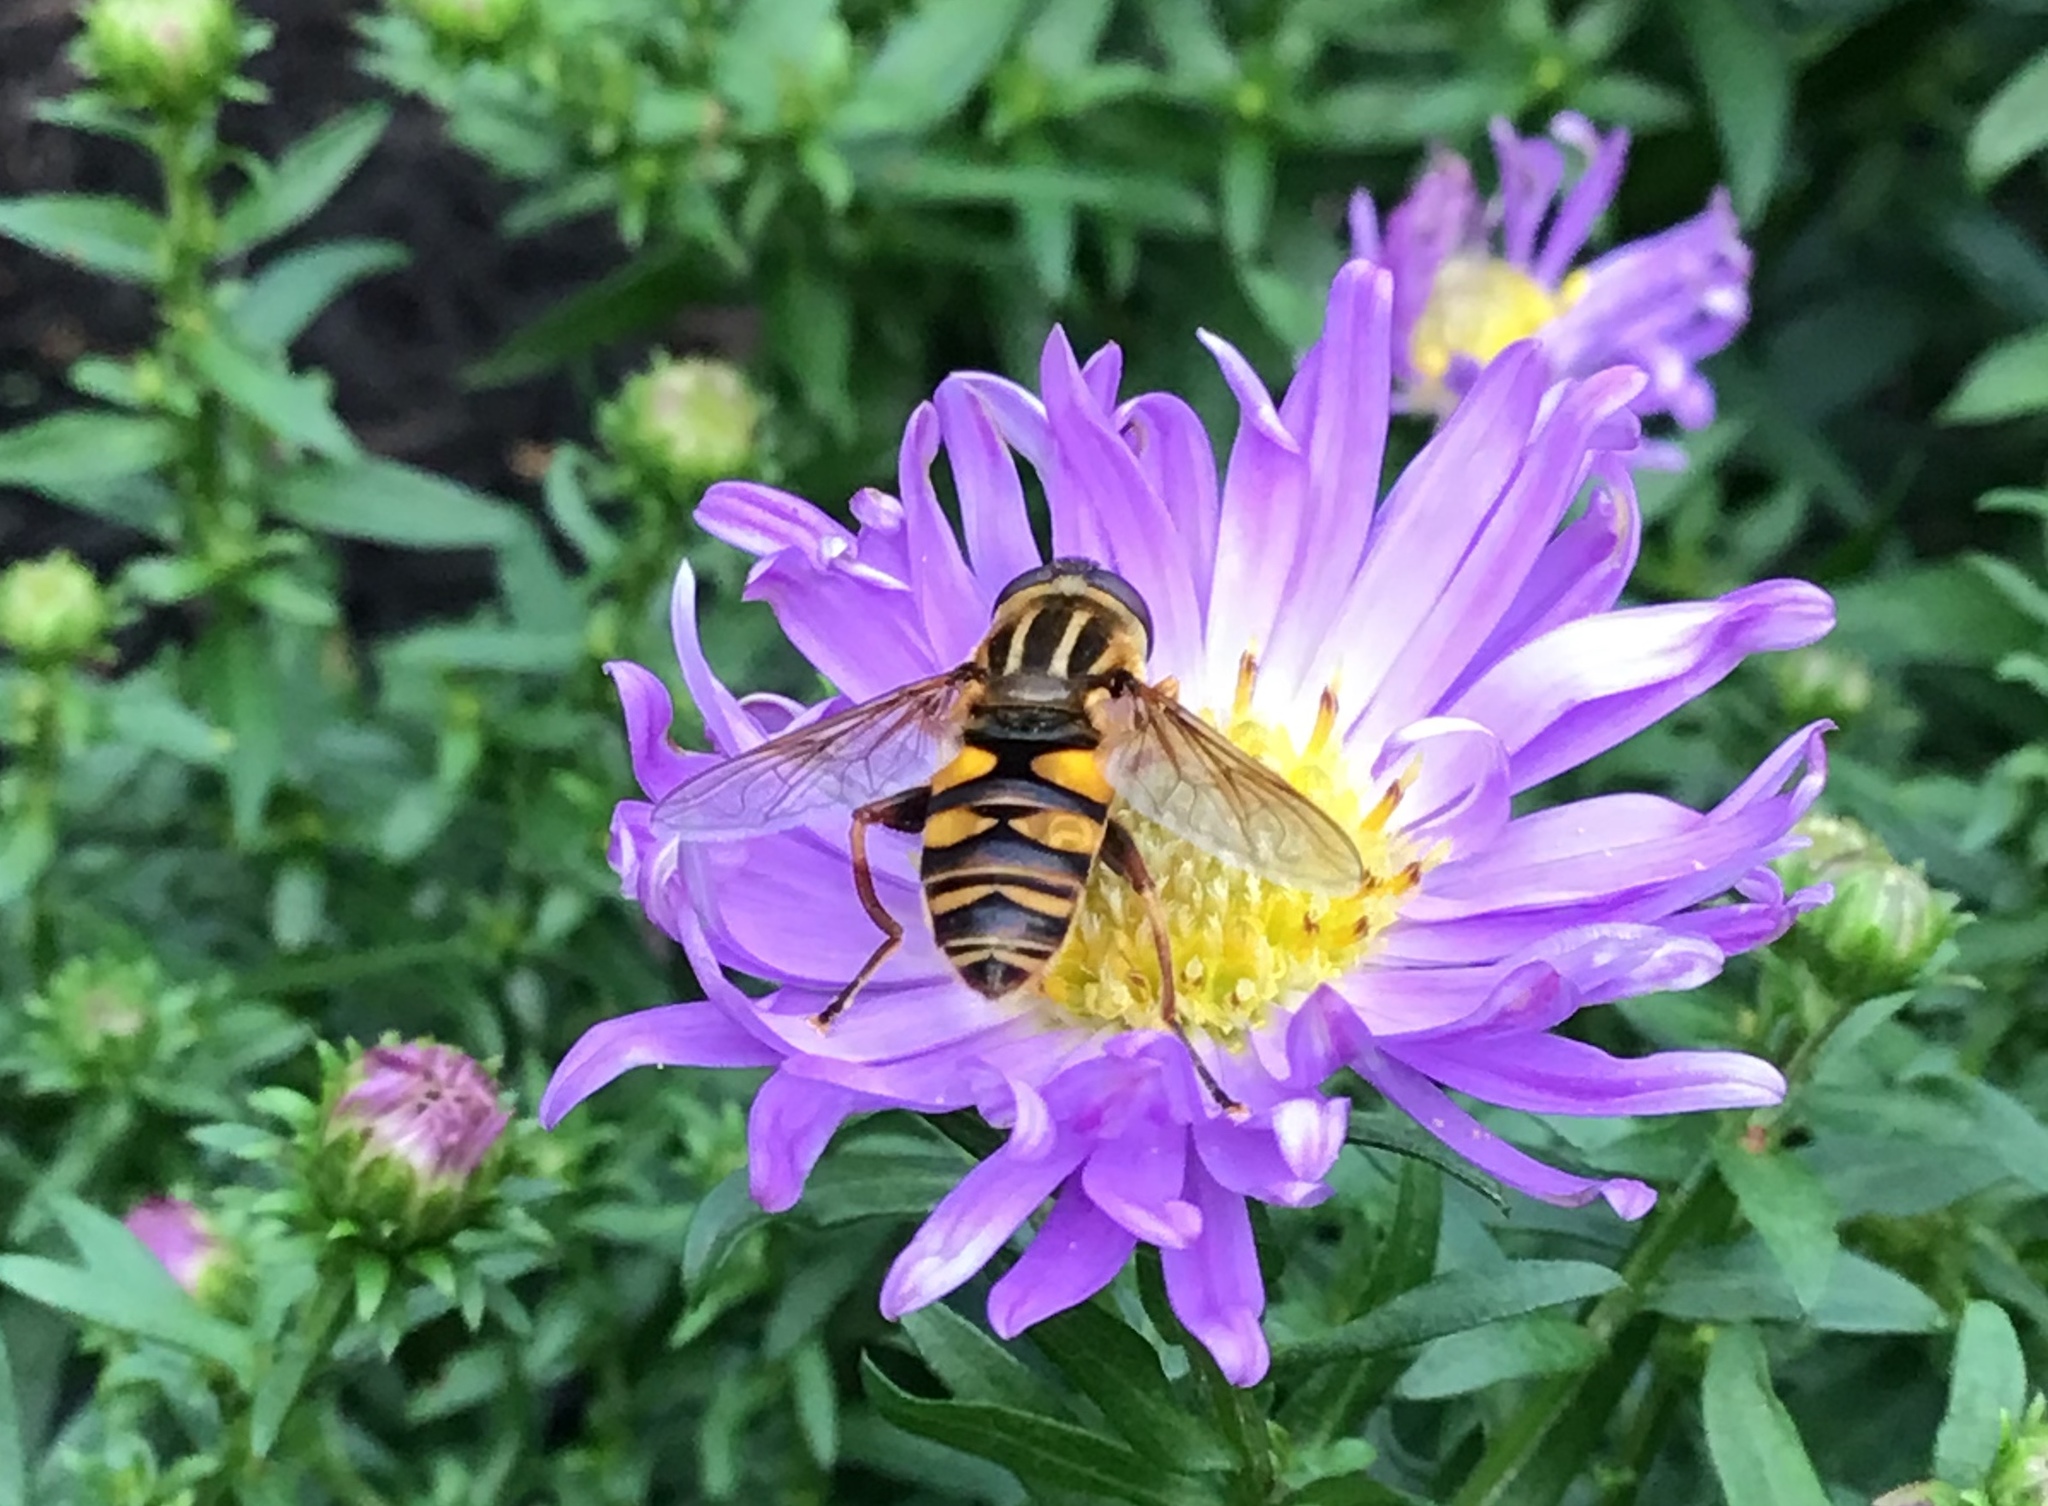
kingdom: Animalia
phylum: Arthropoda
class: Insecta
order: Diptera
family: Syrphidae
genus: Helophilus
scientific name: Helophilus fasciatus
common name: Narrow-headed marsh fly
